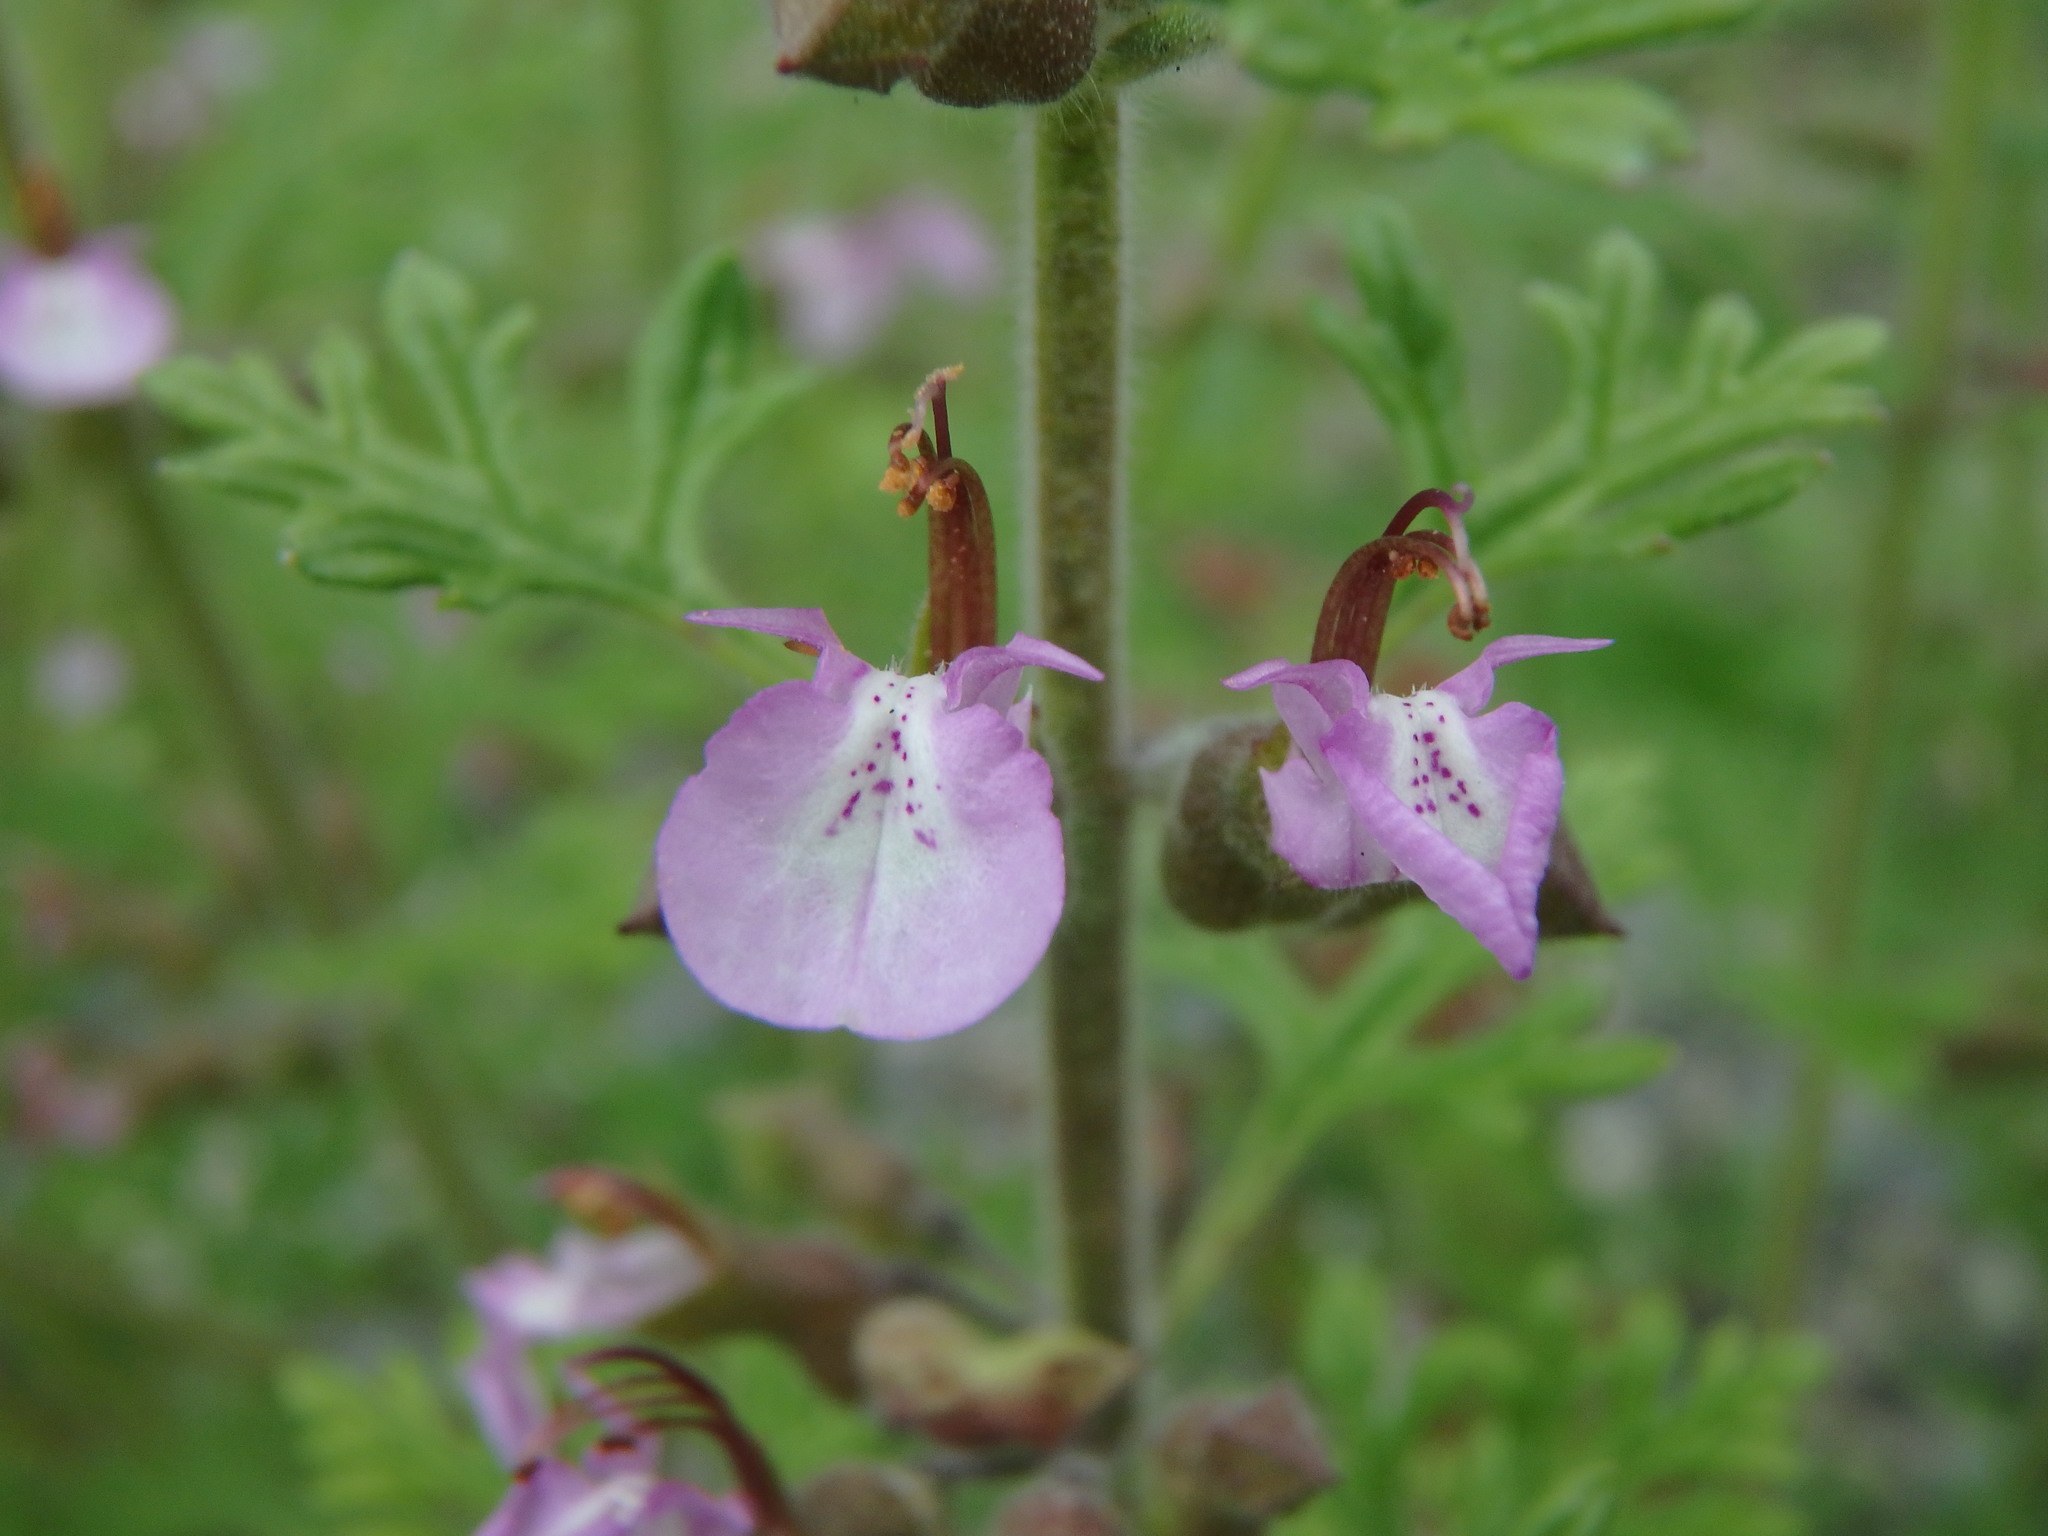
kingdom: Plantae
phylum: Tracheophyta
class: Magnoliopsida
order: Lamiales
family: Lamiaceae
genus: Teucrium
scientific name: Teucrium botrys
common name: Cut-leaved germander
